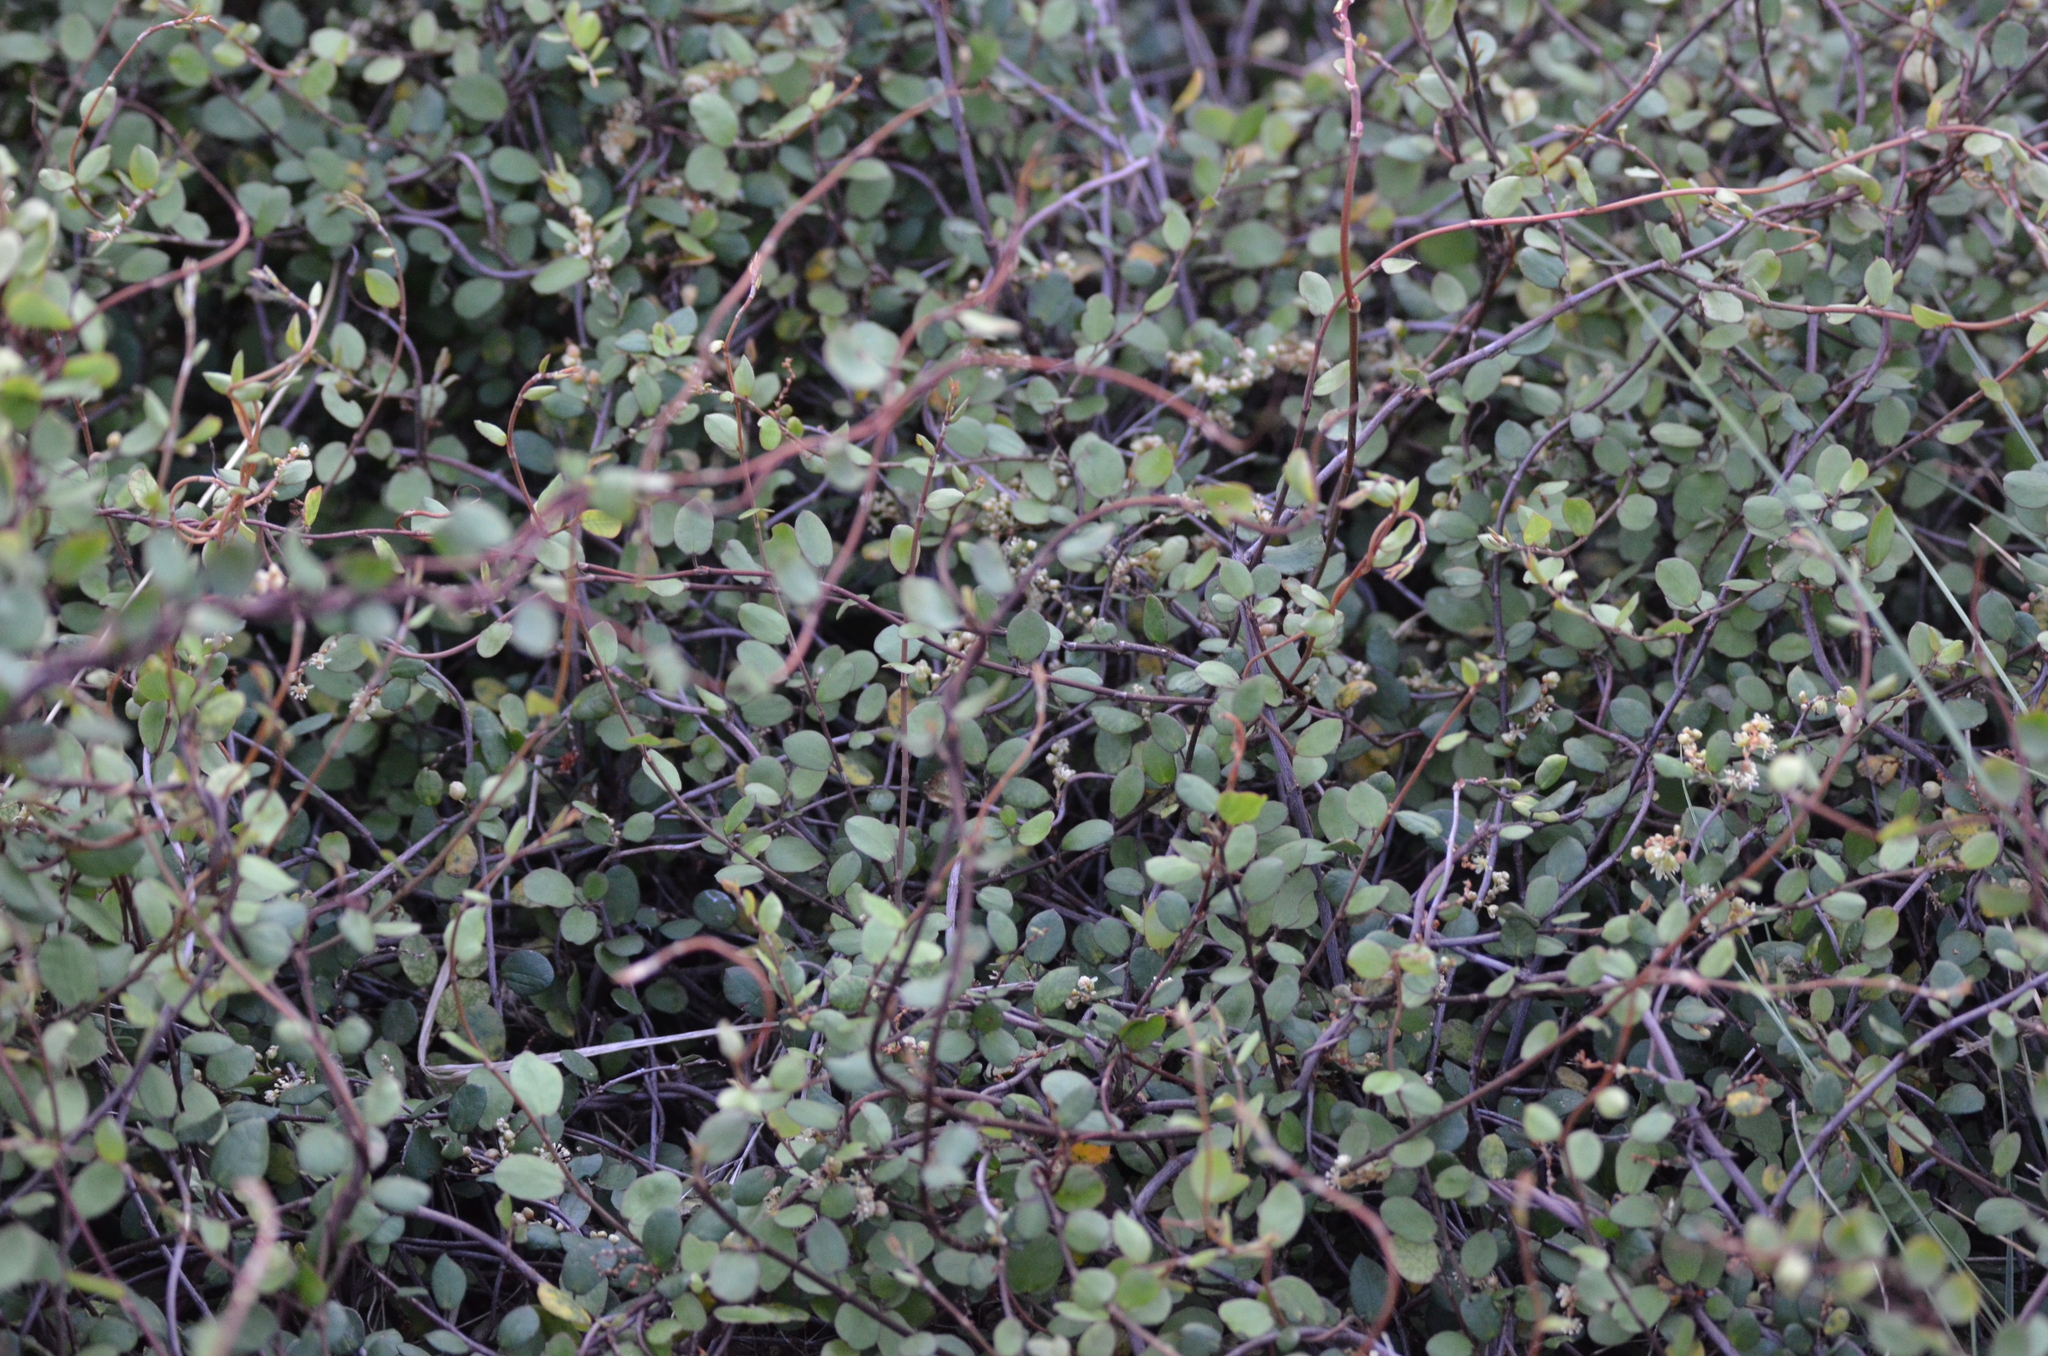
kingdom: Plantae
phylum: Tracheophyta
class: Magnoliopsida
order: Caryophyllales
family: Polygonaceae
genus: Muehlenbeckia
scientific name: Muehlenbeckia complexa
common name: Wireplant
